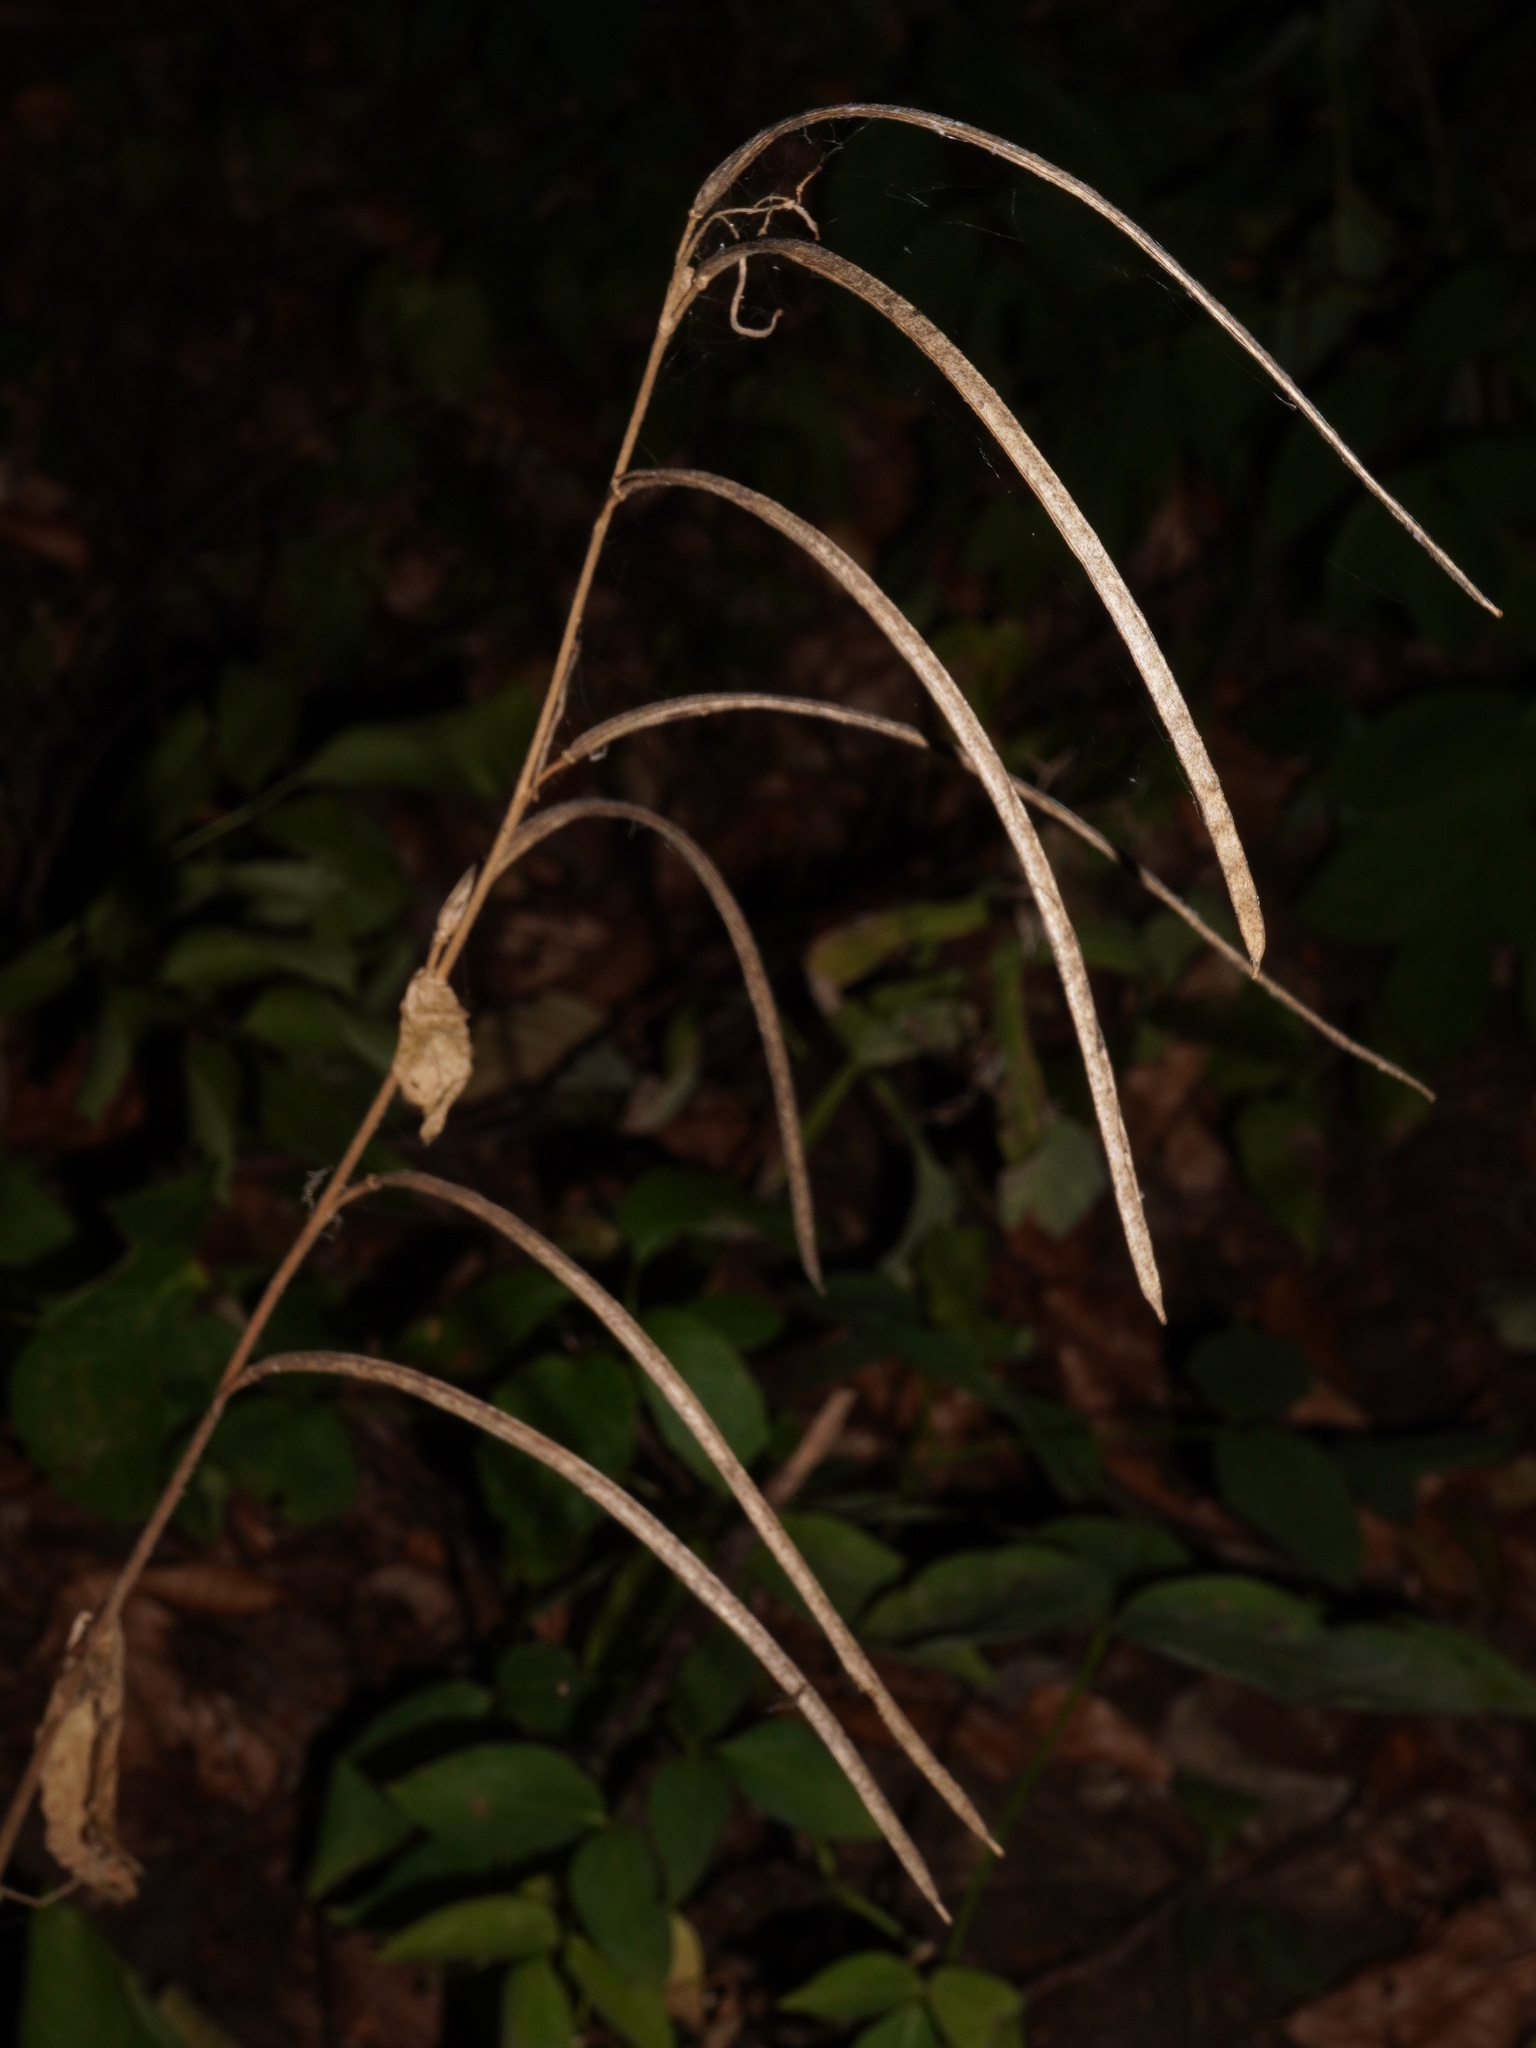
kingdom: Plantae
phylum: Tracheophyta
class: Magnoliopsida
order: Brassicales
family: Brassicaceae
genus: Pseudoturritis
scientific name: Pseudoturritis turrita
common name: Tower cress
